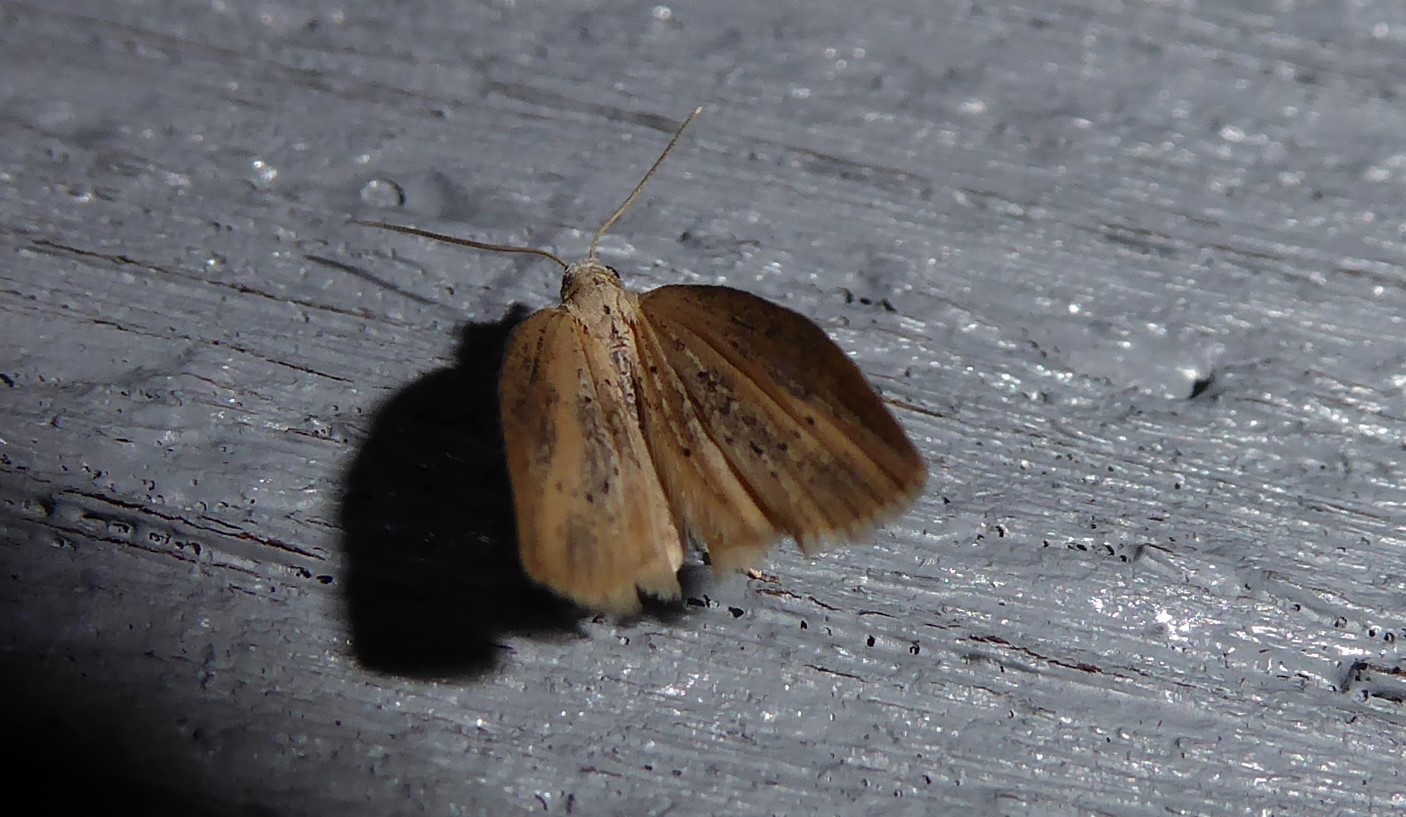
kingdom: Animalia
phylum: Arthropoda
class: Insecta
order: Lepidoptera
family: Geometridae
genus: Microdes
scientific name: Microdes epicryptis
